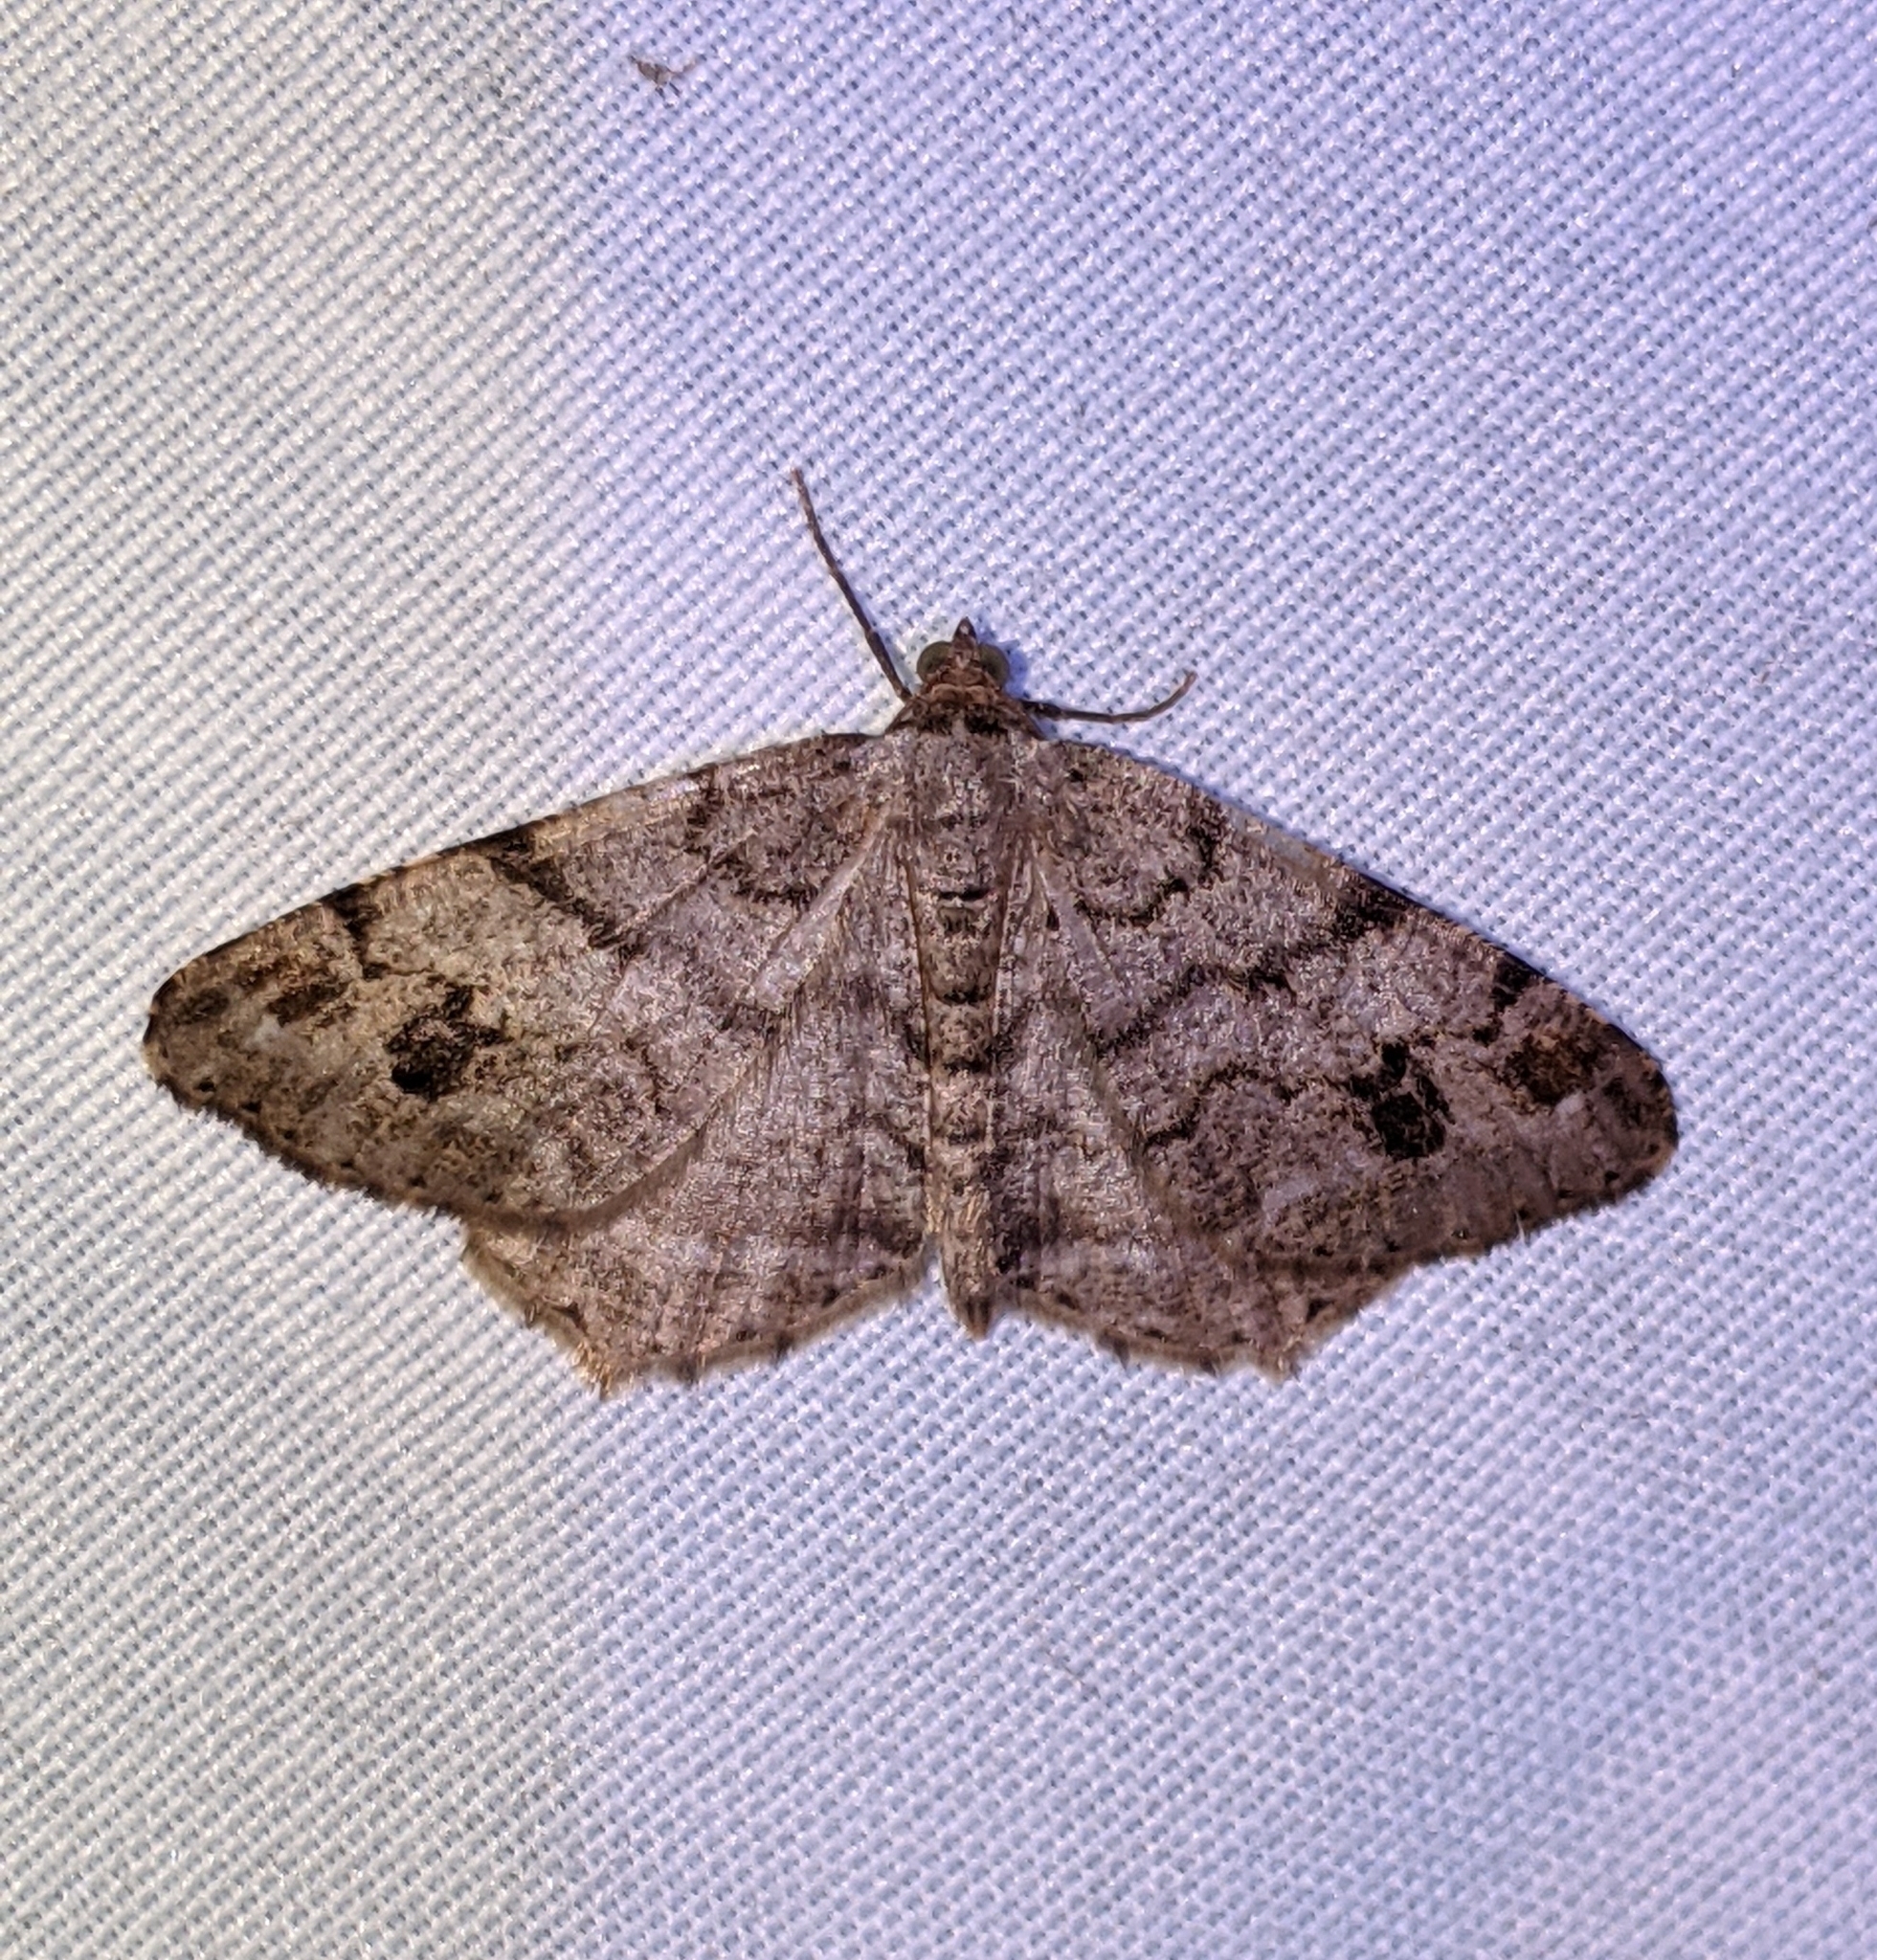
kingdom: Animalia
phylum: Arthropoda
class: Insecta
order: Lepidoptera
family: Geometridae
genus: Macaria
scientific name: Macaria signaria
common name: Dusky peacock
